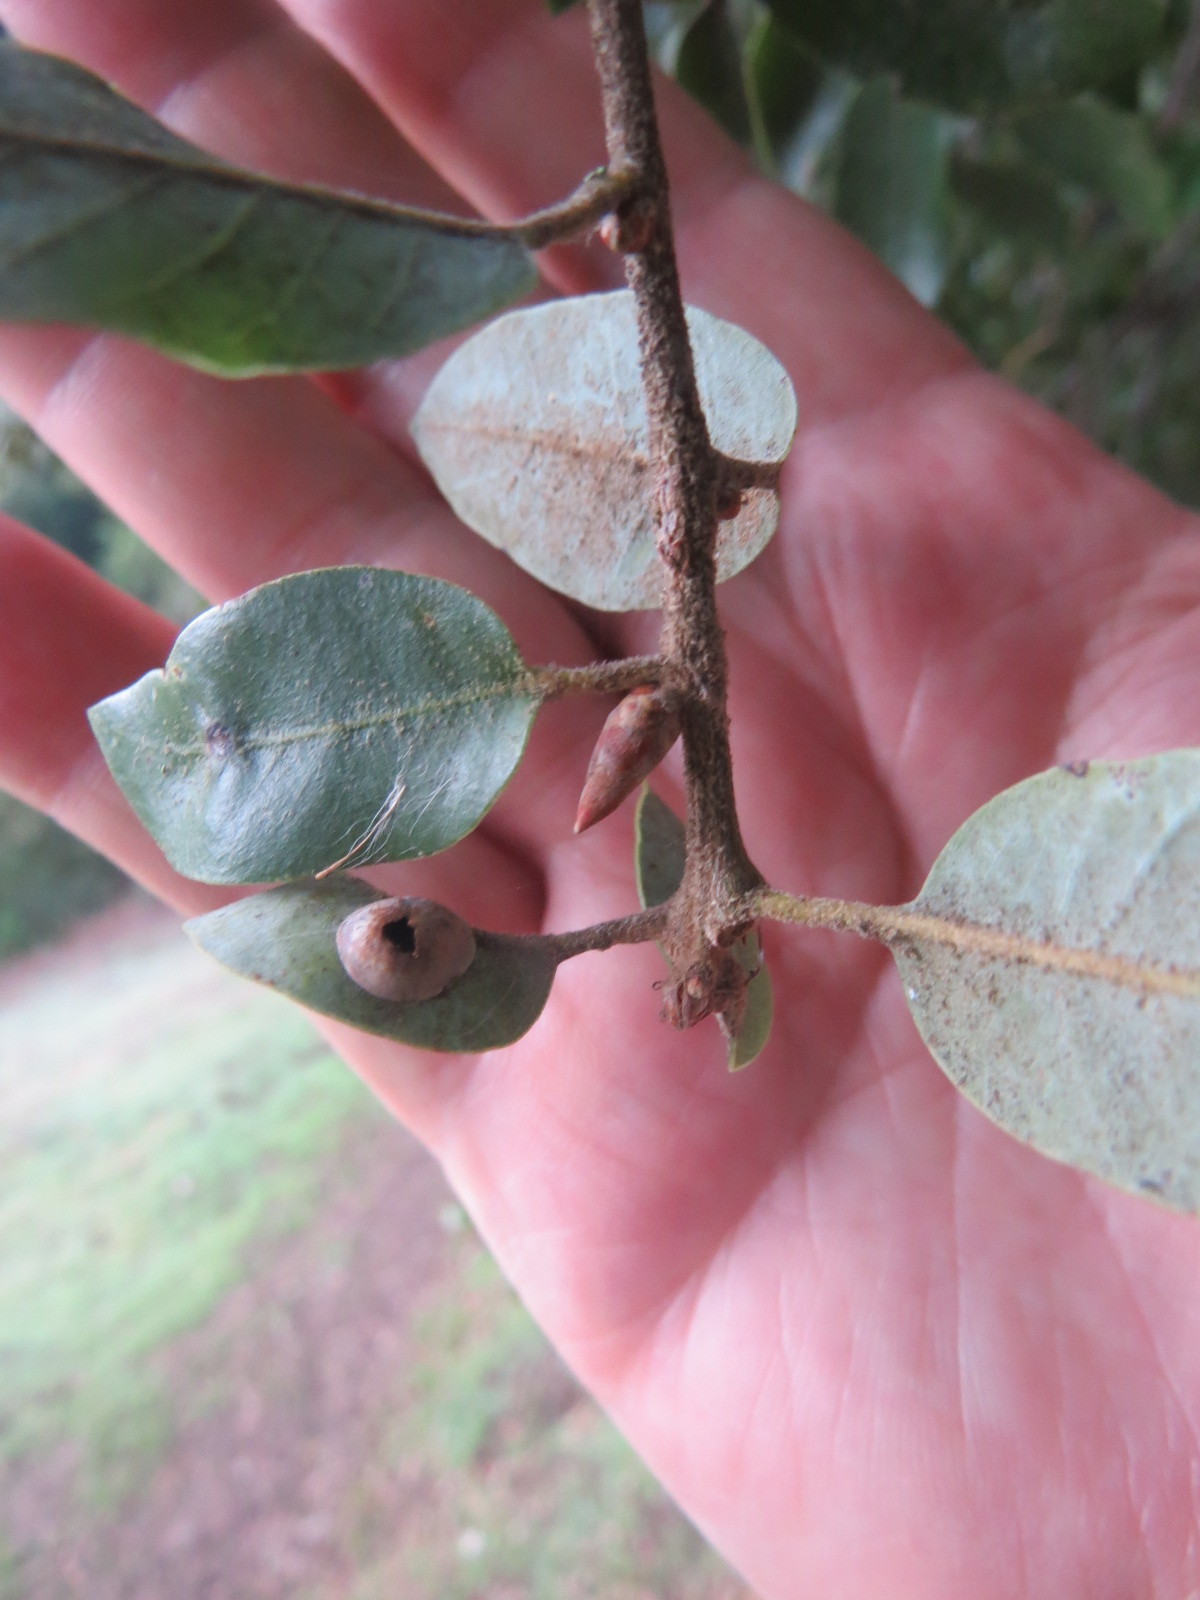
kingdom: Animalia
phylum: Arthropoda
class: Insecta
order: Hymenoptera
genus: Paracraspis
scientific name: Paracraspis
